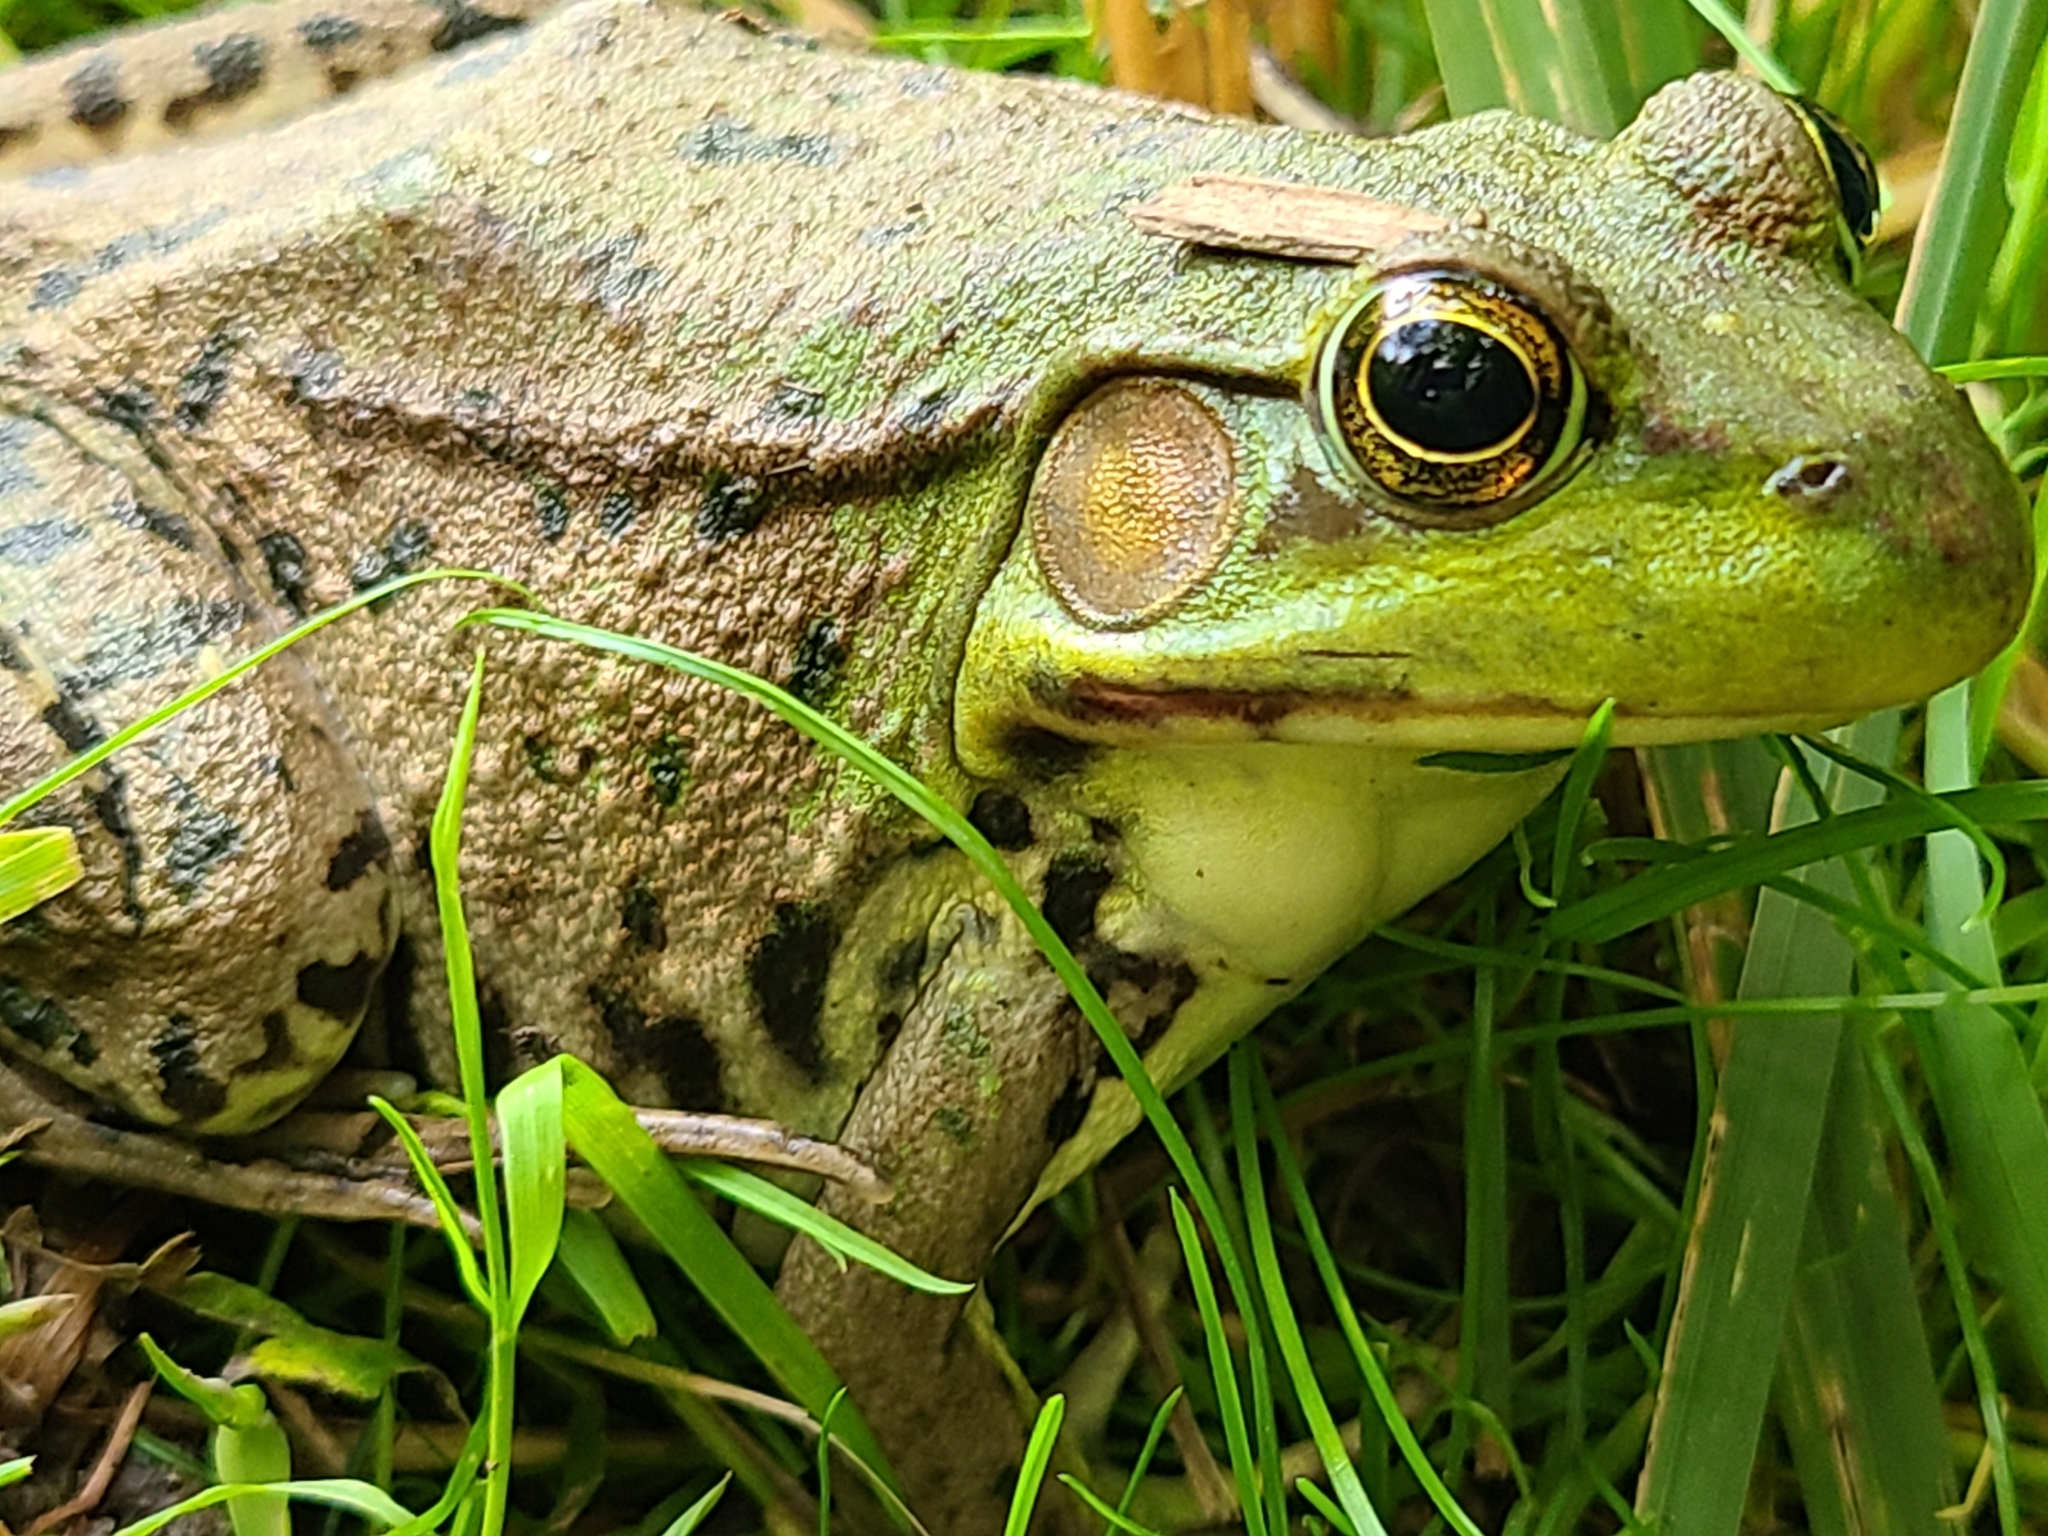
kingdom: Animalia
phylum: Chordata
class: Amphibia
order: Anura
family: Ranidae
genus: Lithobates
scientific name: Lithobates clamitans
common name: Green frog
